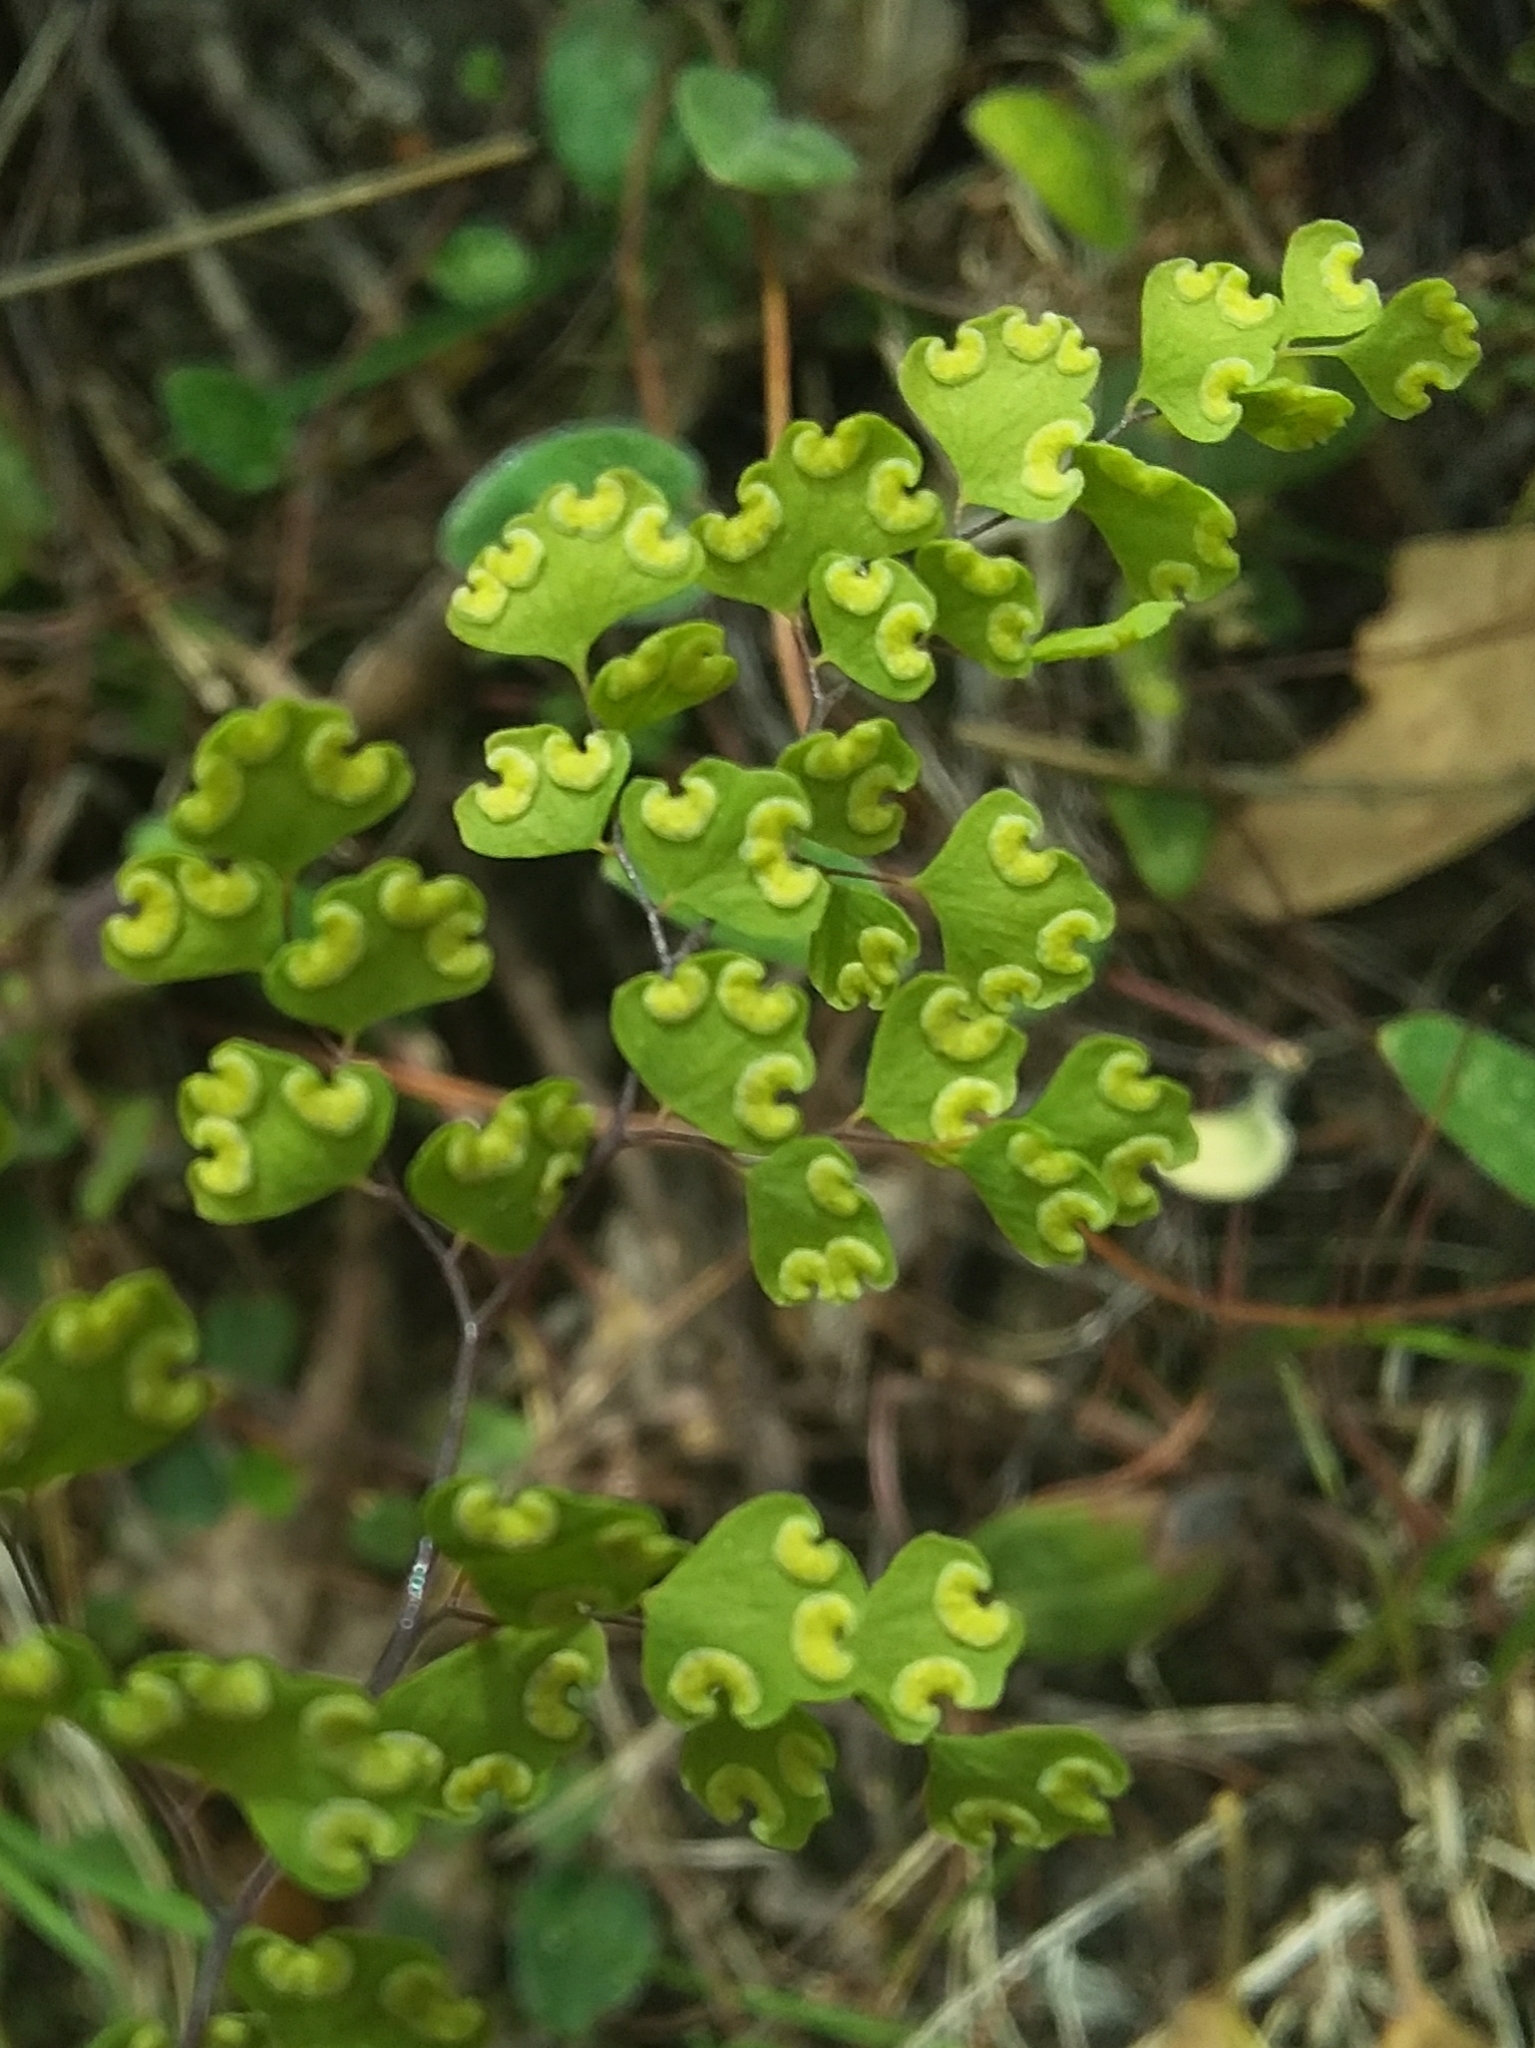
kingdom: Plantae
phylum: Tracheophyta
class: Polypodiopsida
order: Polypodiales
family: Pteridaceae
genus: Adiantum
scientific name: Adiantum aethiopicum
